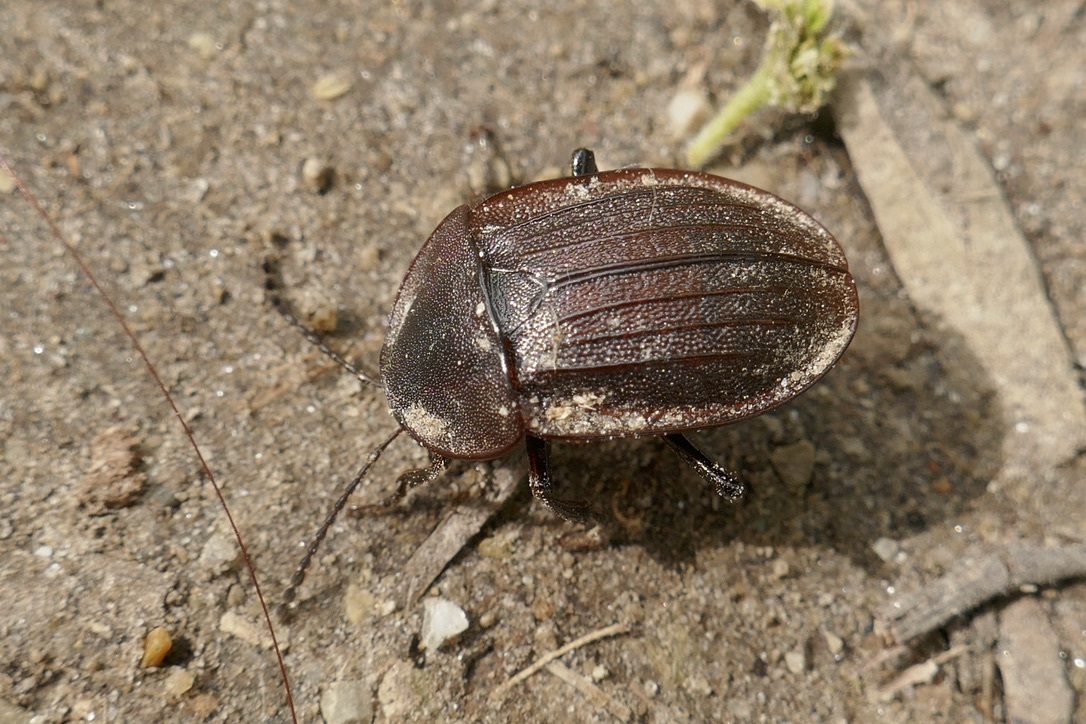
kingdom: Animalia
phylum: Arthropoda
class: Insecta
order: Coleoptera
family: Staphylinidae
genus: Silpha
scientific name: Silpha atrata
